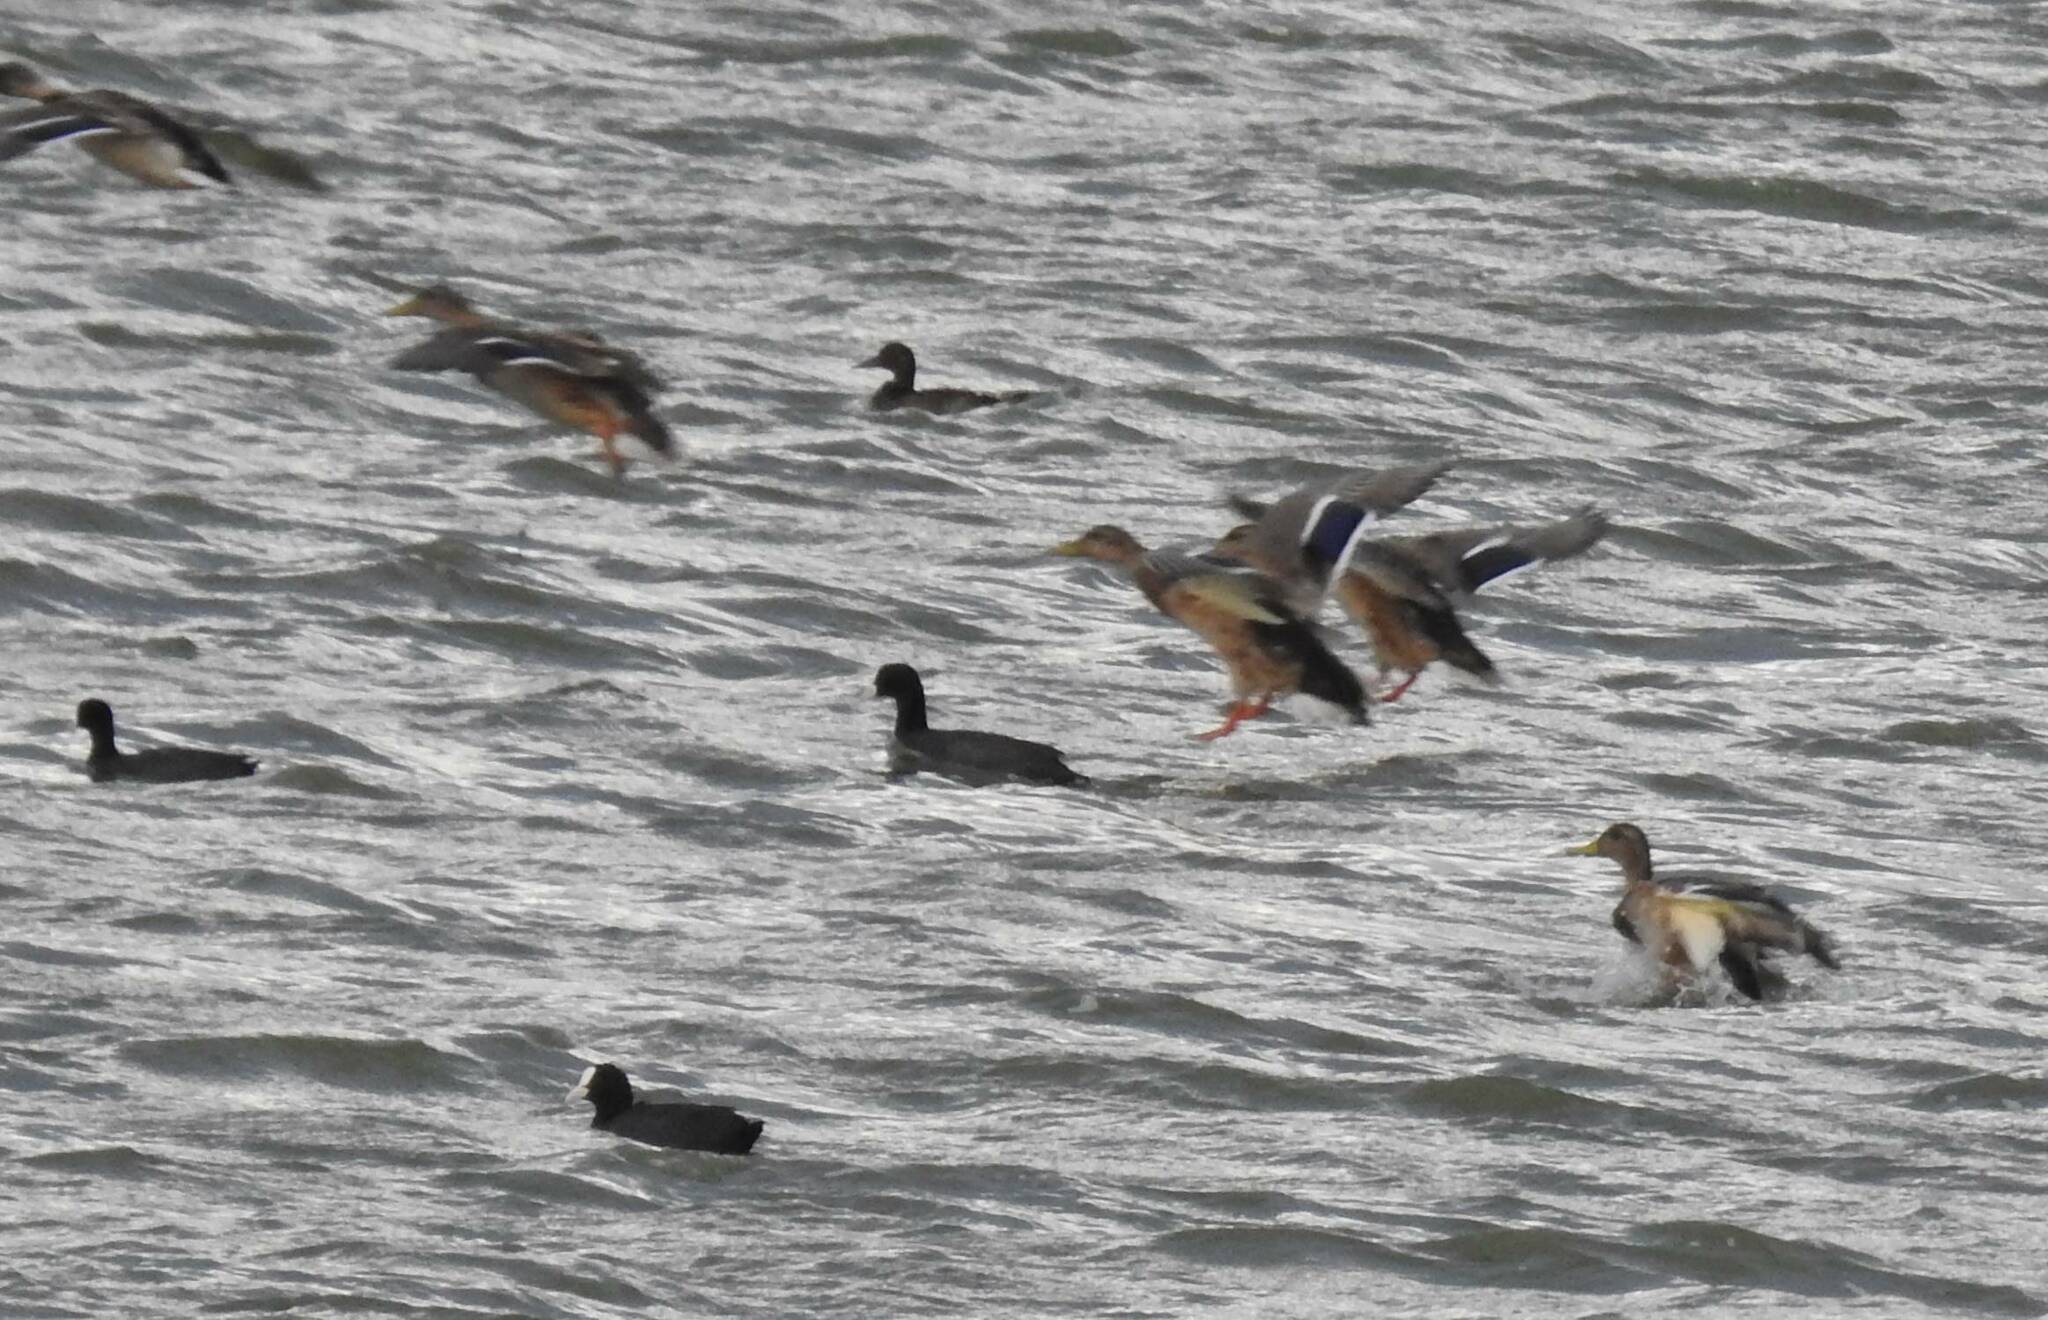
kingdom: Animalia
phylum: Chordata
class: Aves
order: Anseriformes
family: Anatidae
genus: Anas
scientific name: Anas platyrhynchos
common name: Mallard
